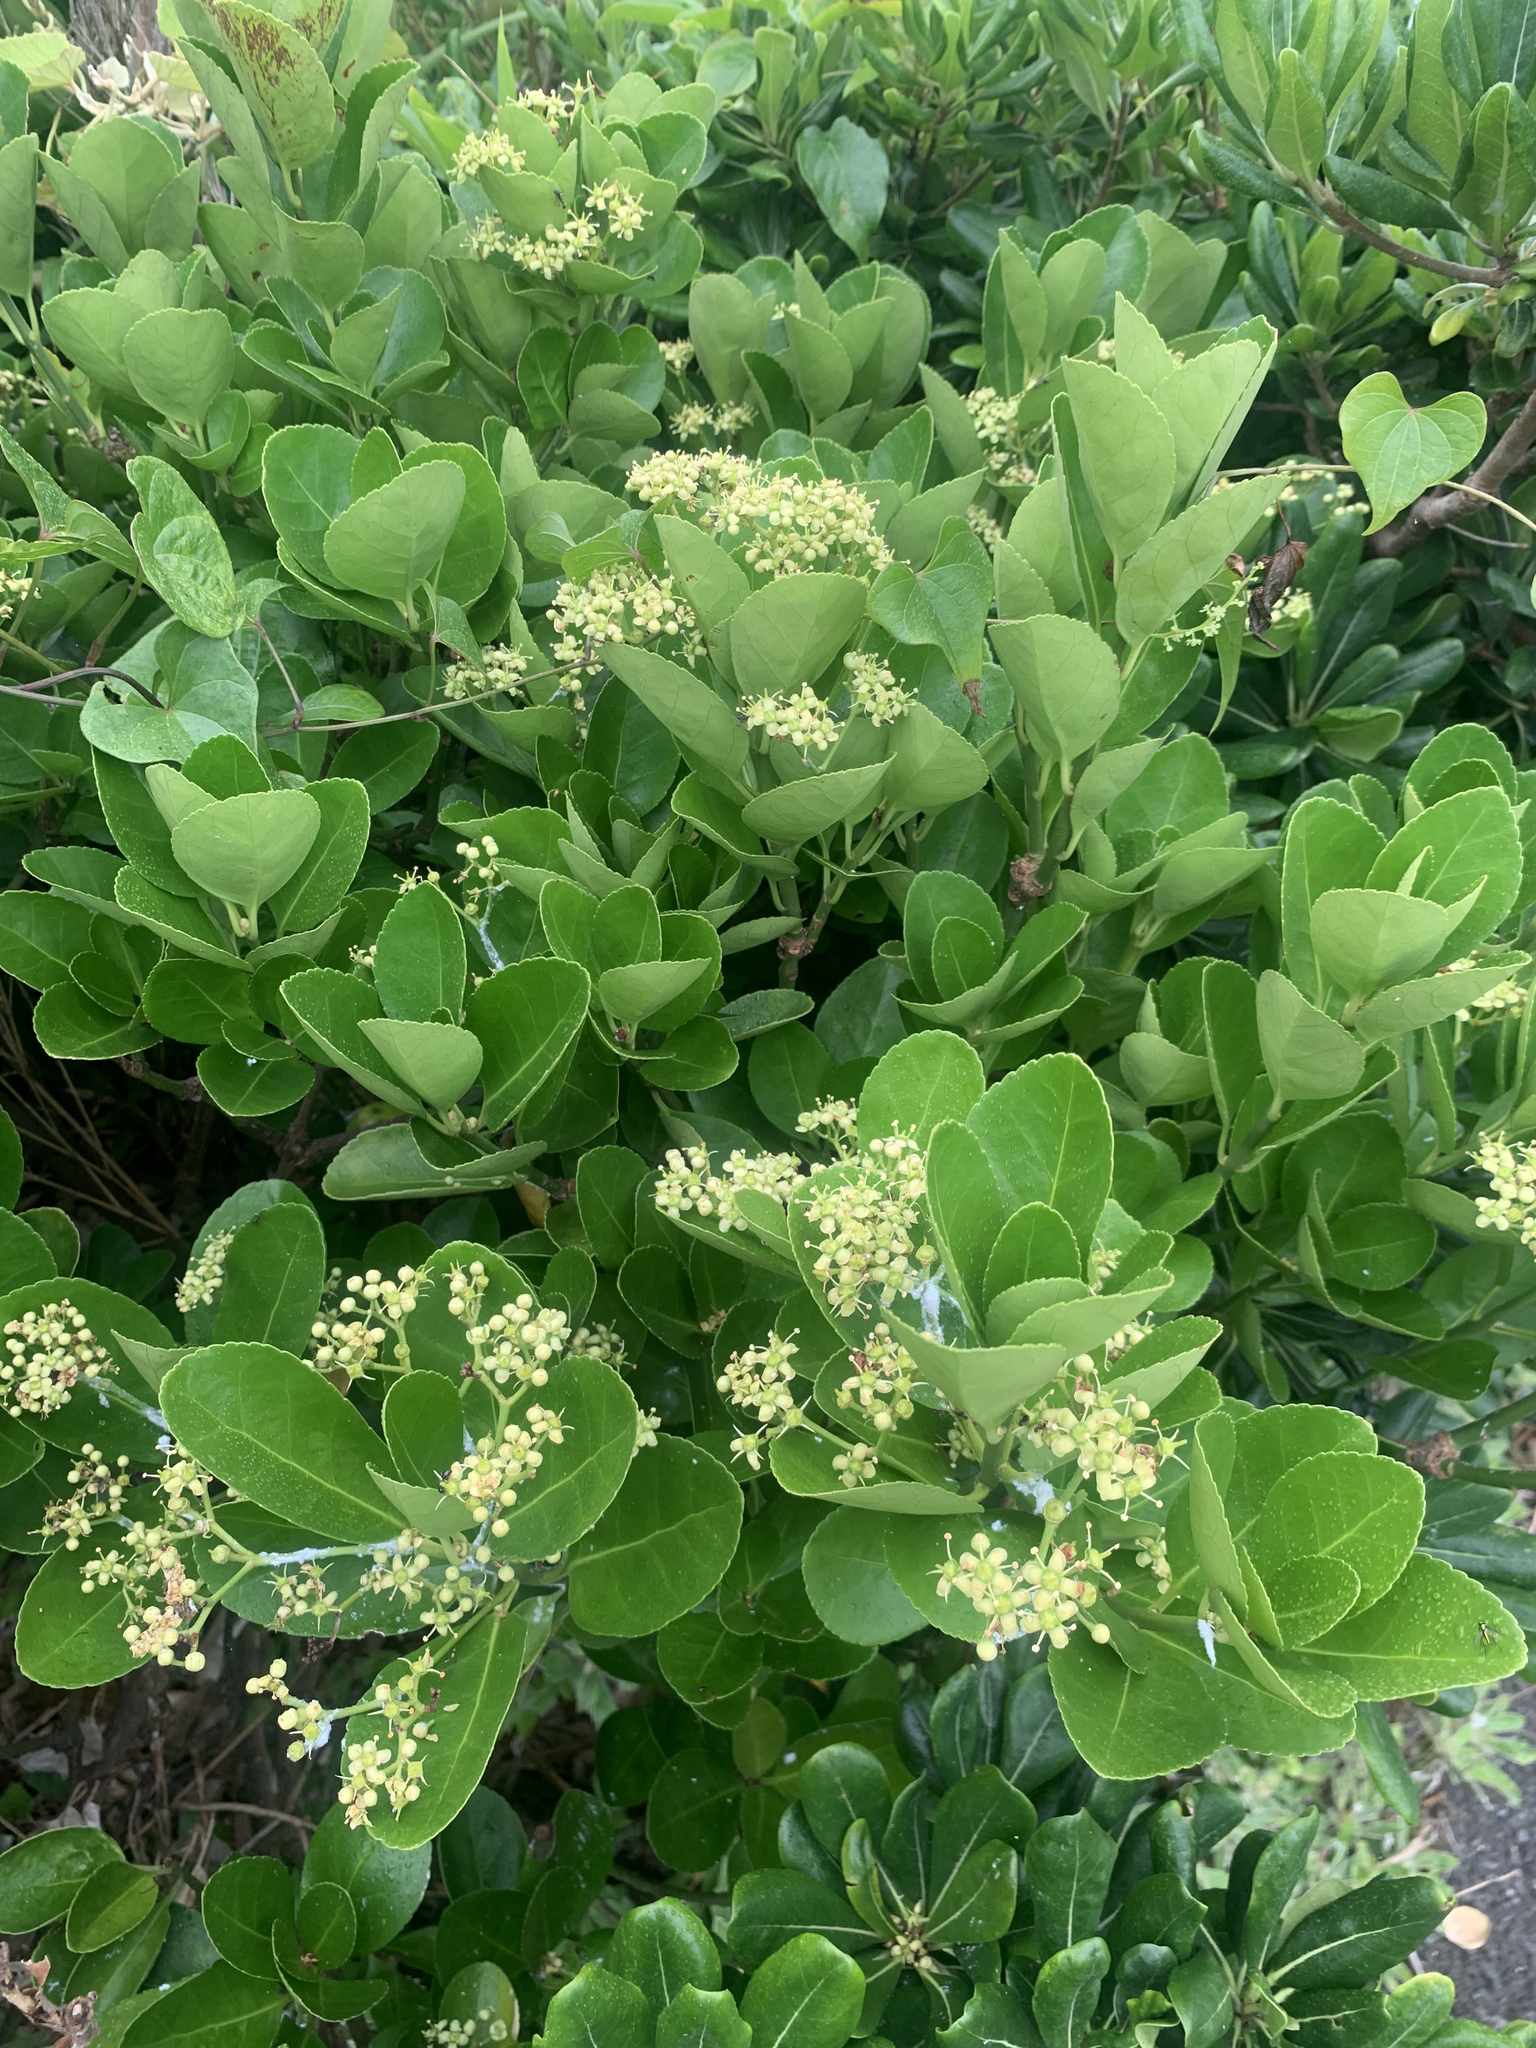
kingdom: Plantae
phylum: Tracheophyta
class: Magnoliopsida
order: Celastrales
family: Celastraceae
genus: Euonymus
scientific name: Euonymus japonicus
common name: Japanese spindletree
